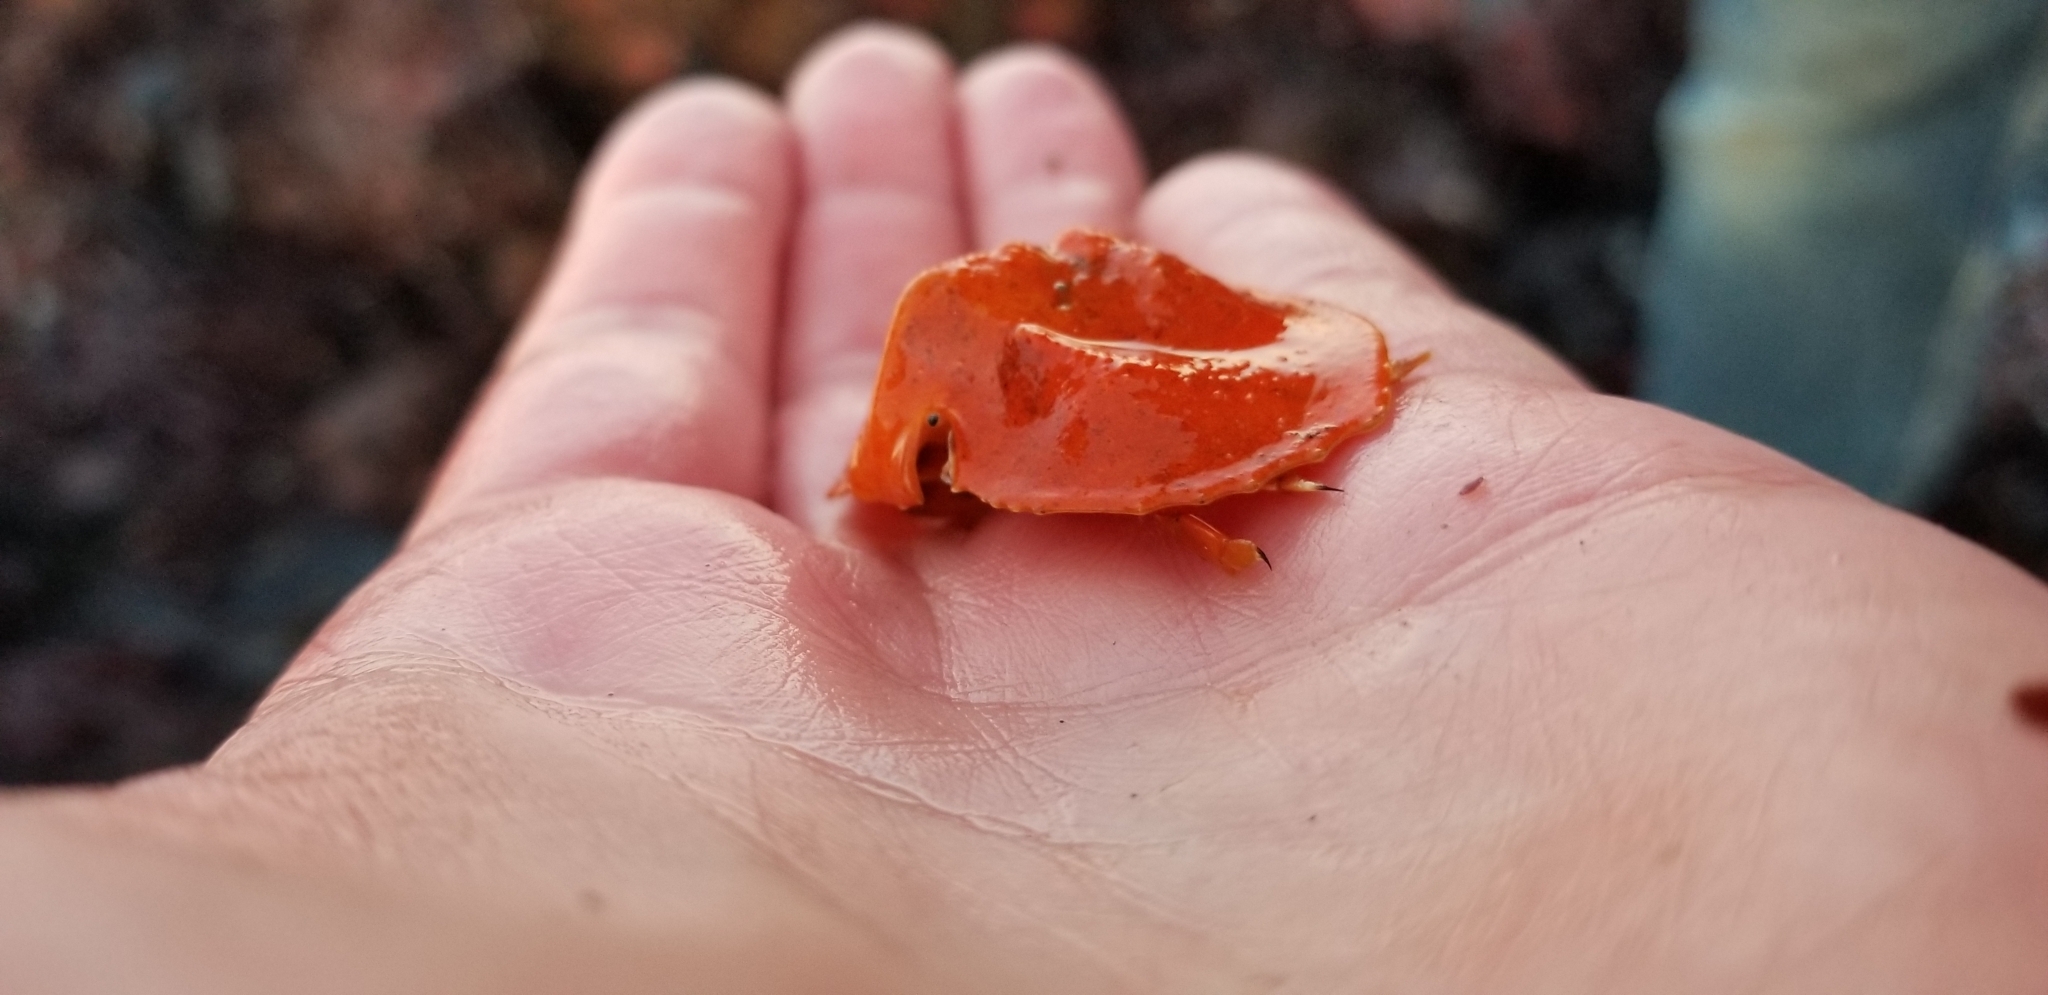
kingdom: Animalia
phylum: Arthropoda
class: Malacostraca
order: Decapoda
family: Lithodidae
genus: Cryptolithodes
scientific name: Cryptolithodes sitchensis
